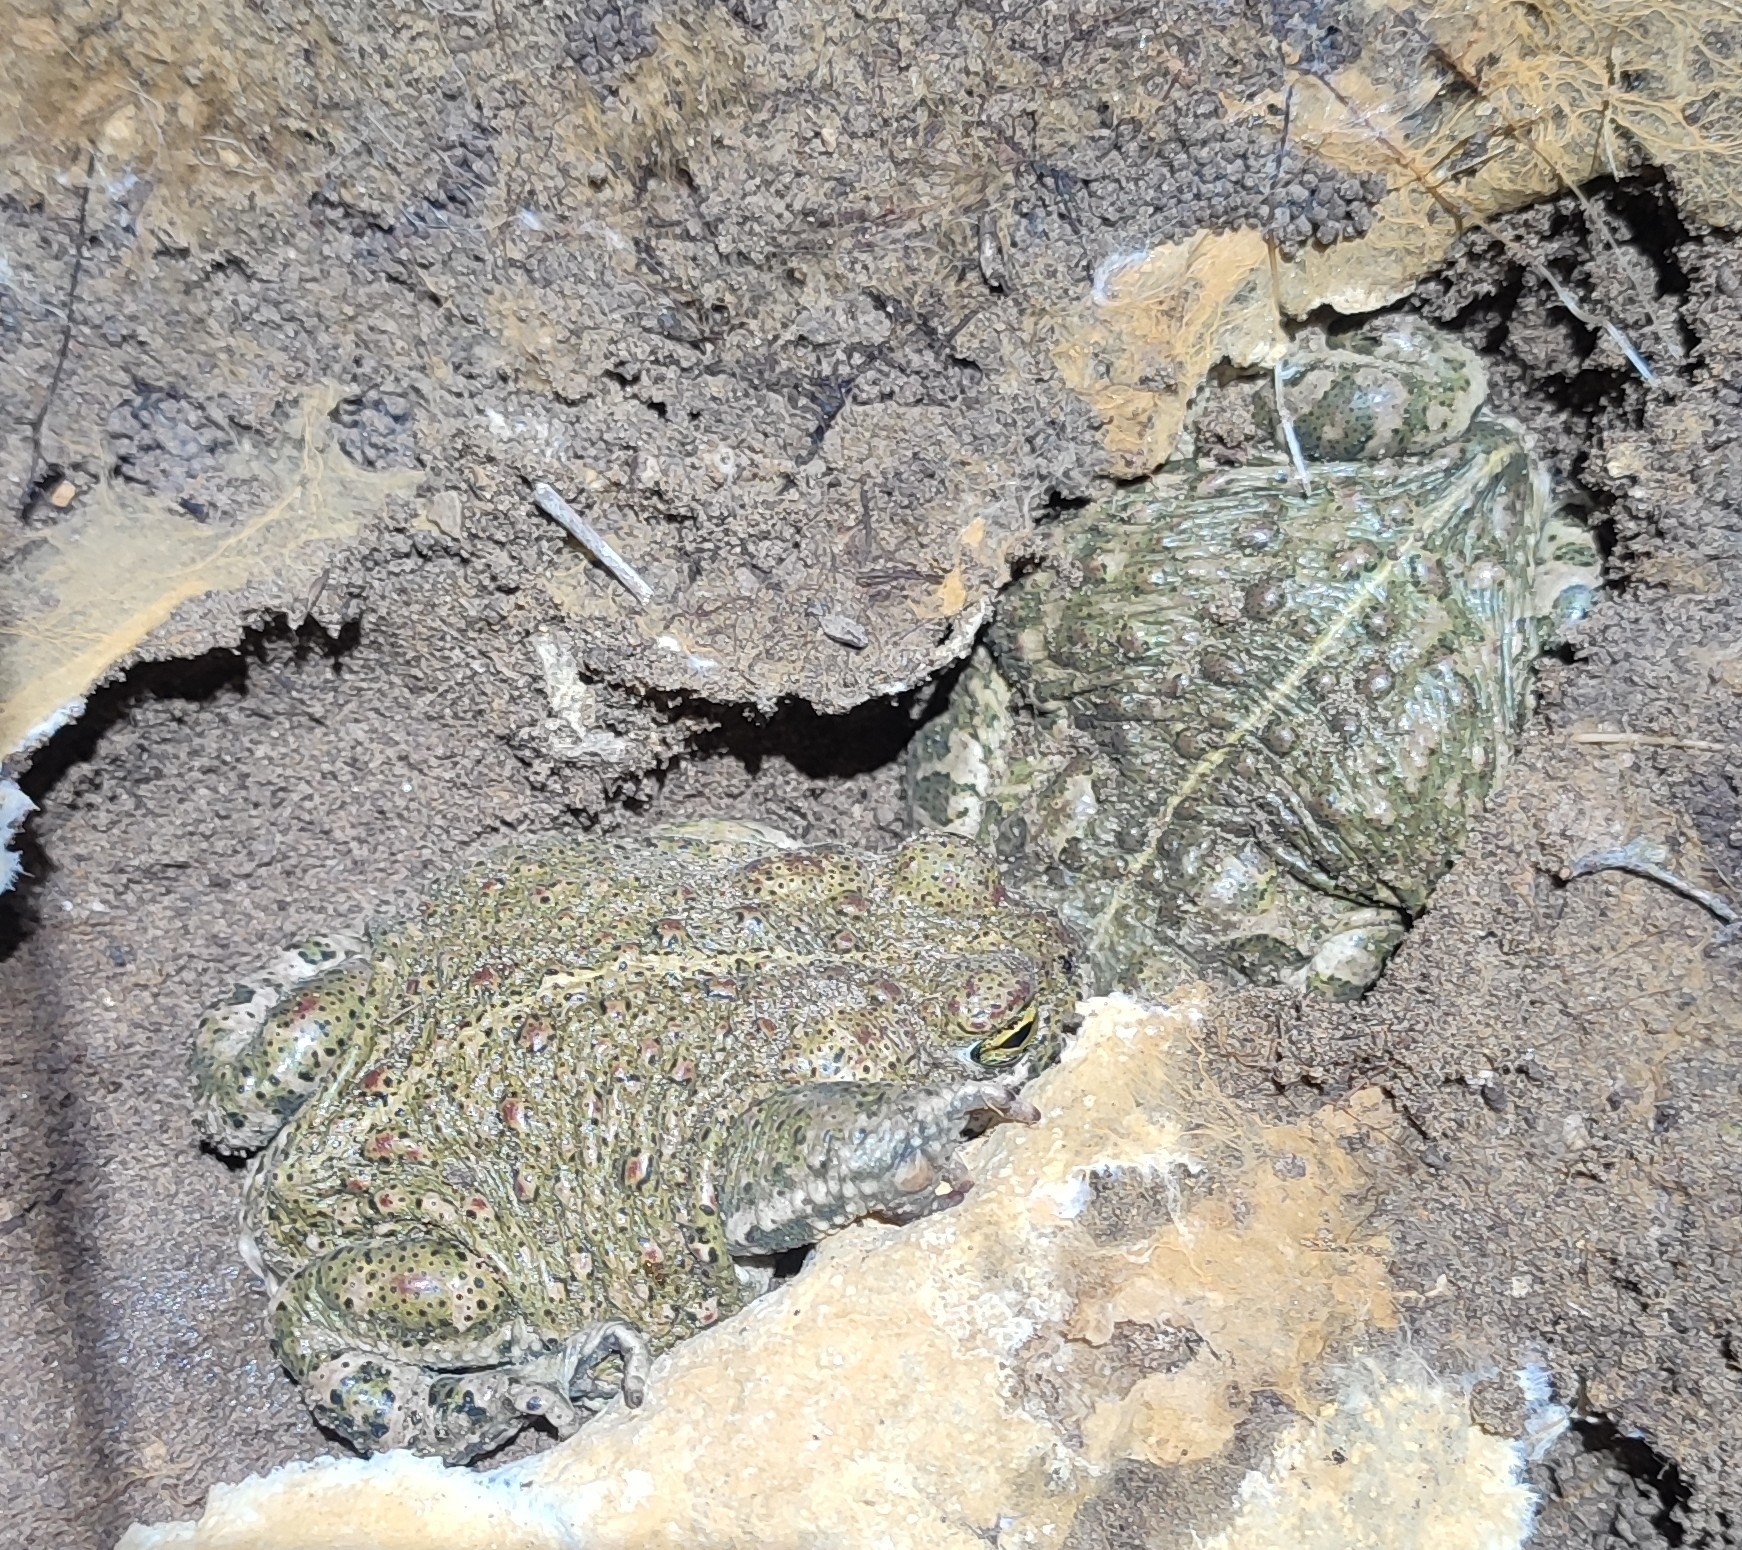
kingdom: Animalia
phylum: Chordata
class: Amphibia
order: Anura
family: Bufonidae
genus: Epidalea
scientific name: Epidalea calamita
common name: Natterjack toad
